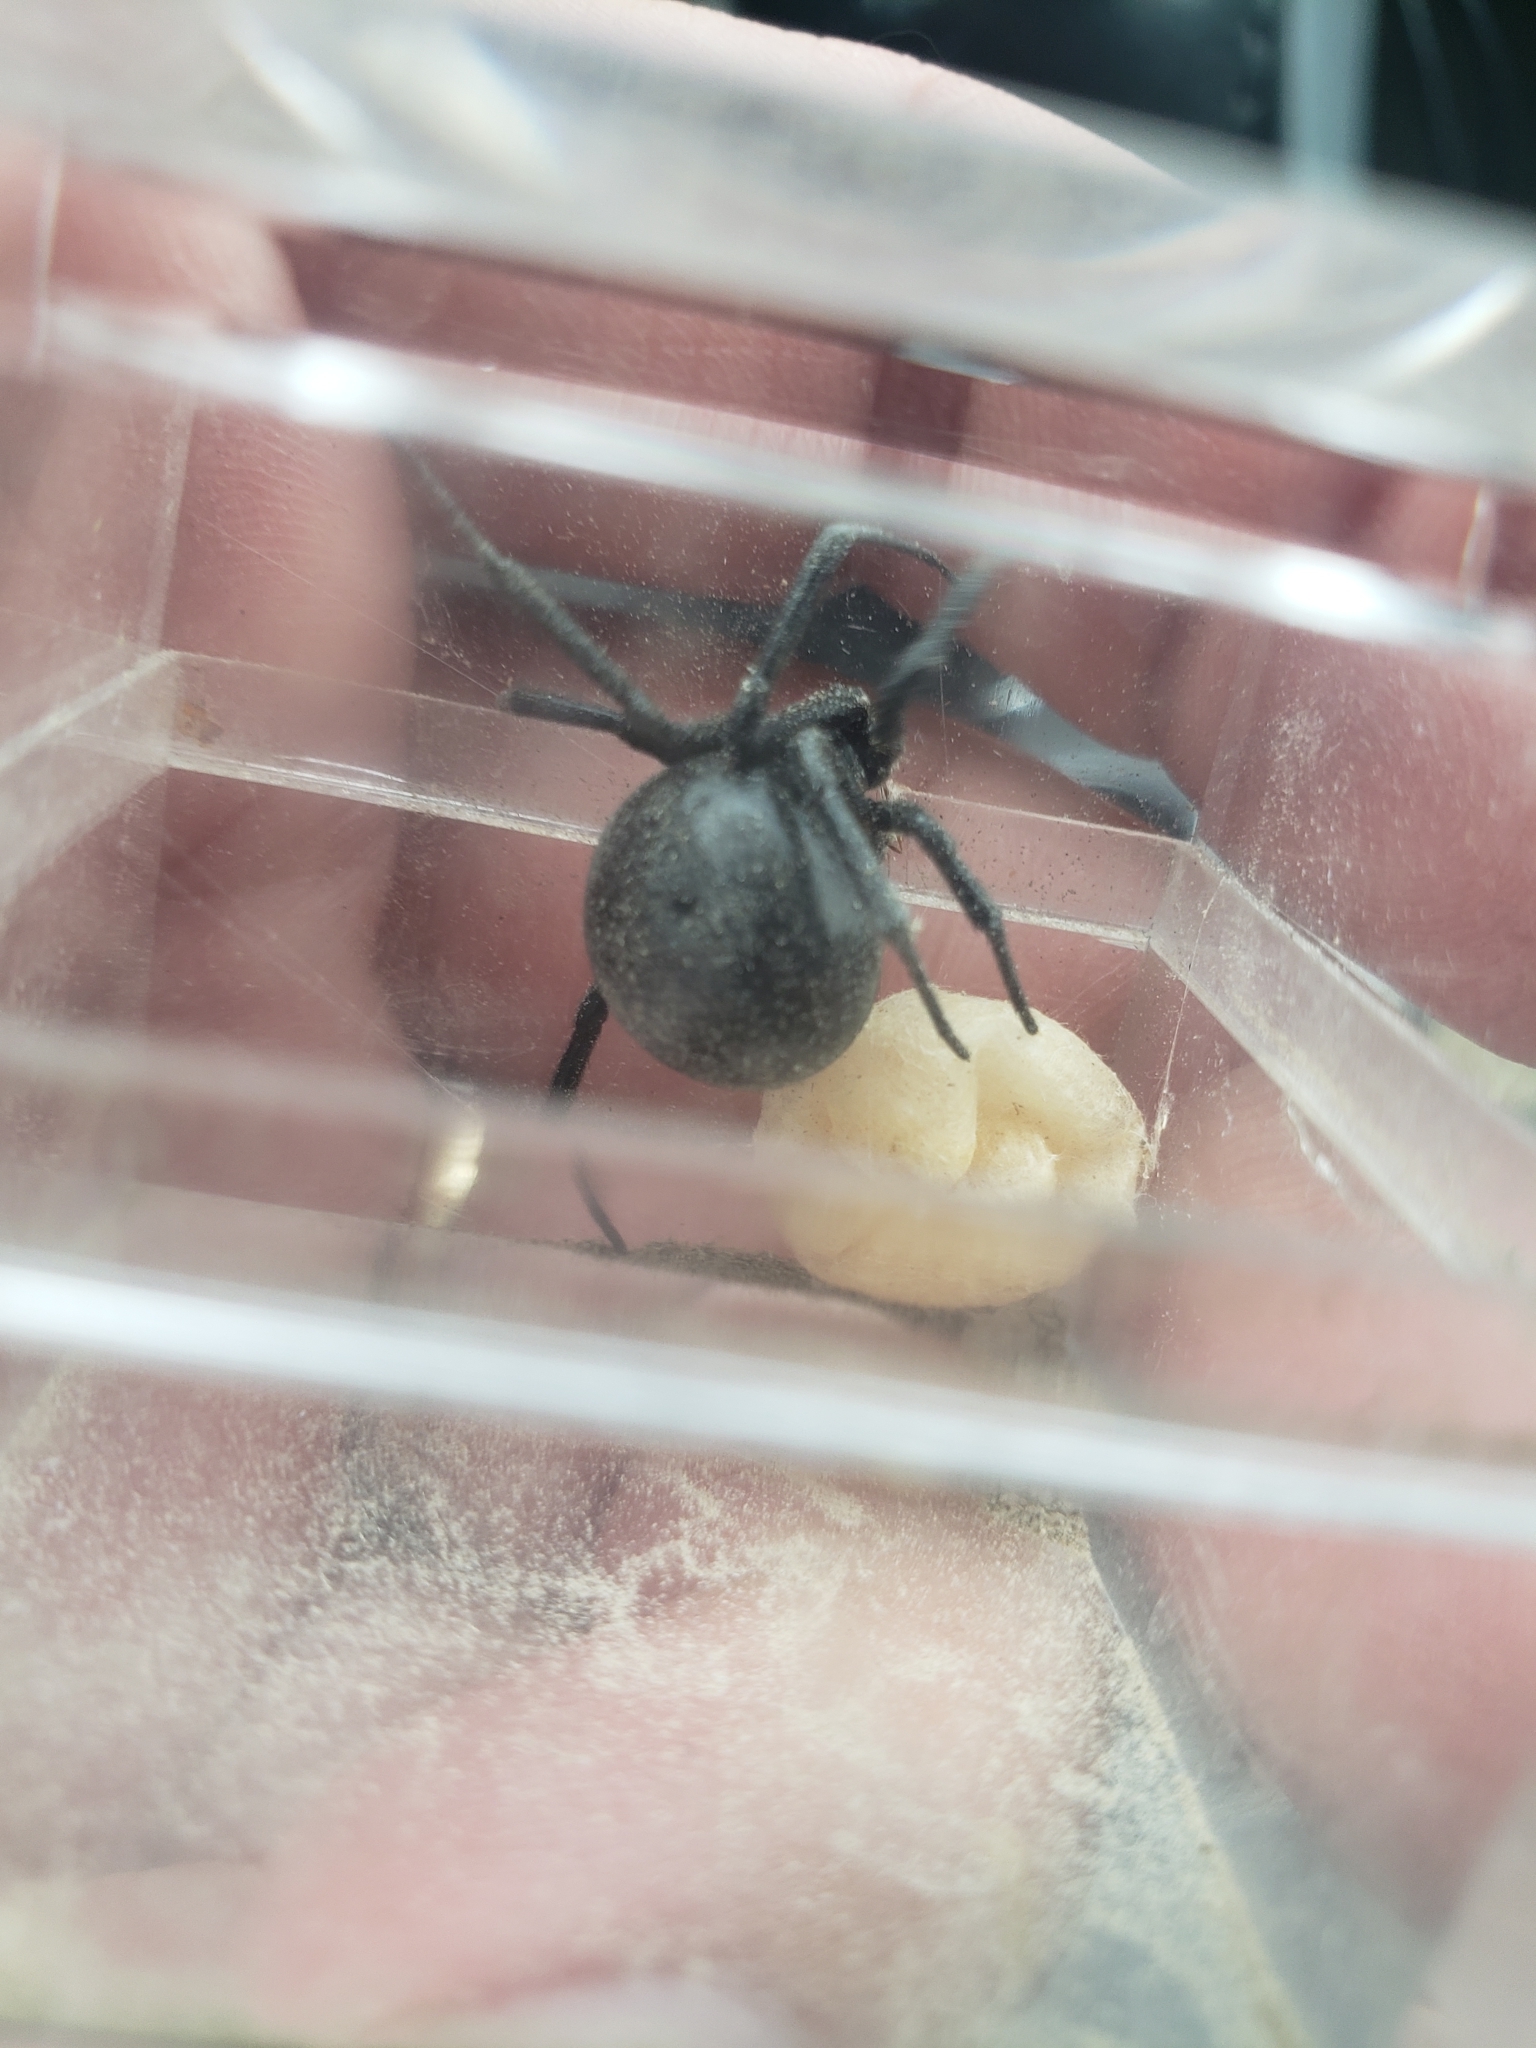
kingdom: Animalia
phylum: Arthropoda
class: Arachnida
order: Araneae
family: Theridiidae
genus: Latrodectus
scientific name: Latrodectus hesperus
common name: Western black widow
